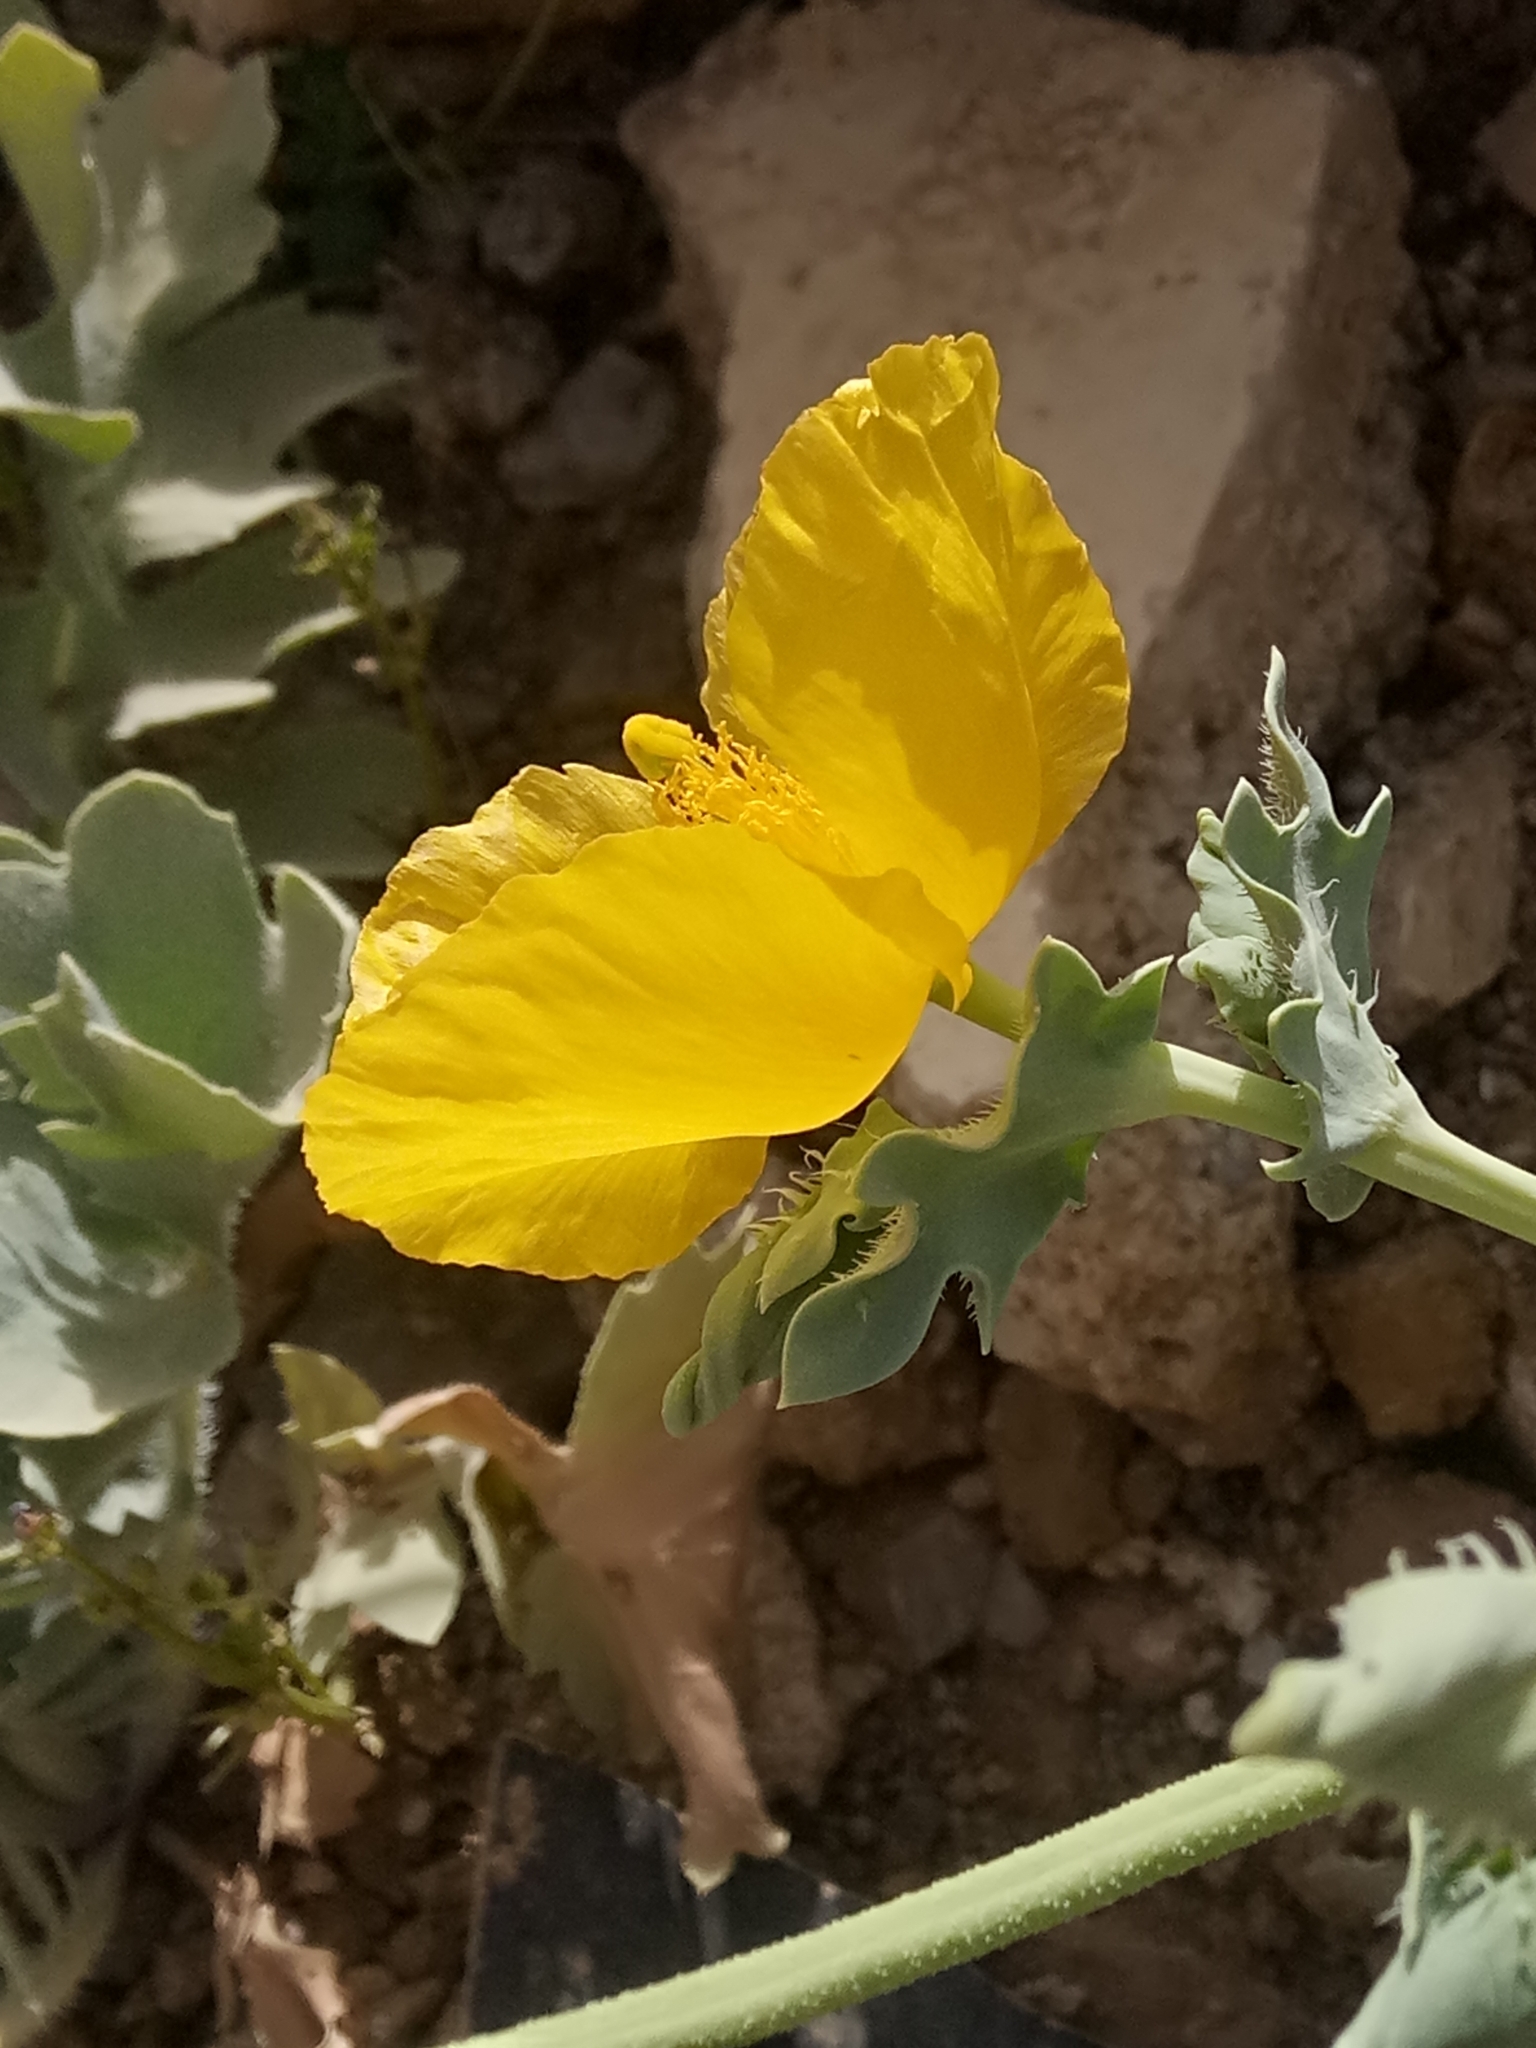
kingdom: Plantae
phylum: Tracheophyta
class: Magnoliopsida
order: Ranunculales
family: Papaveraceae
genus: Glaucium
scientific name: Glaucium flavum
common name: Yellow horned-poppy
